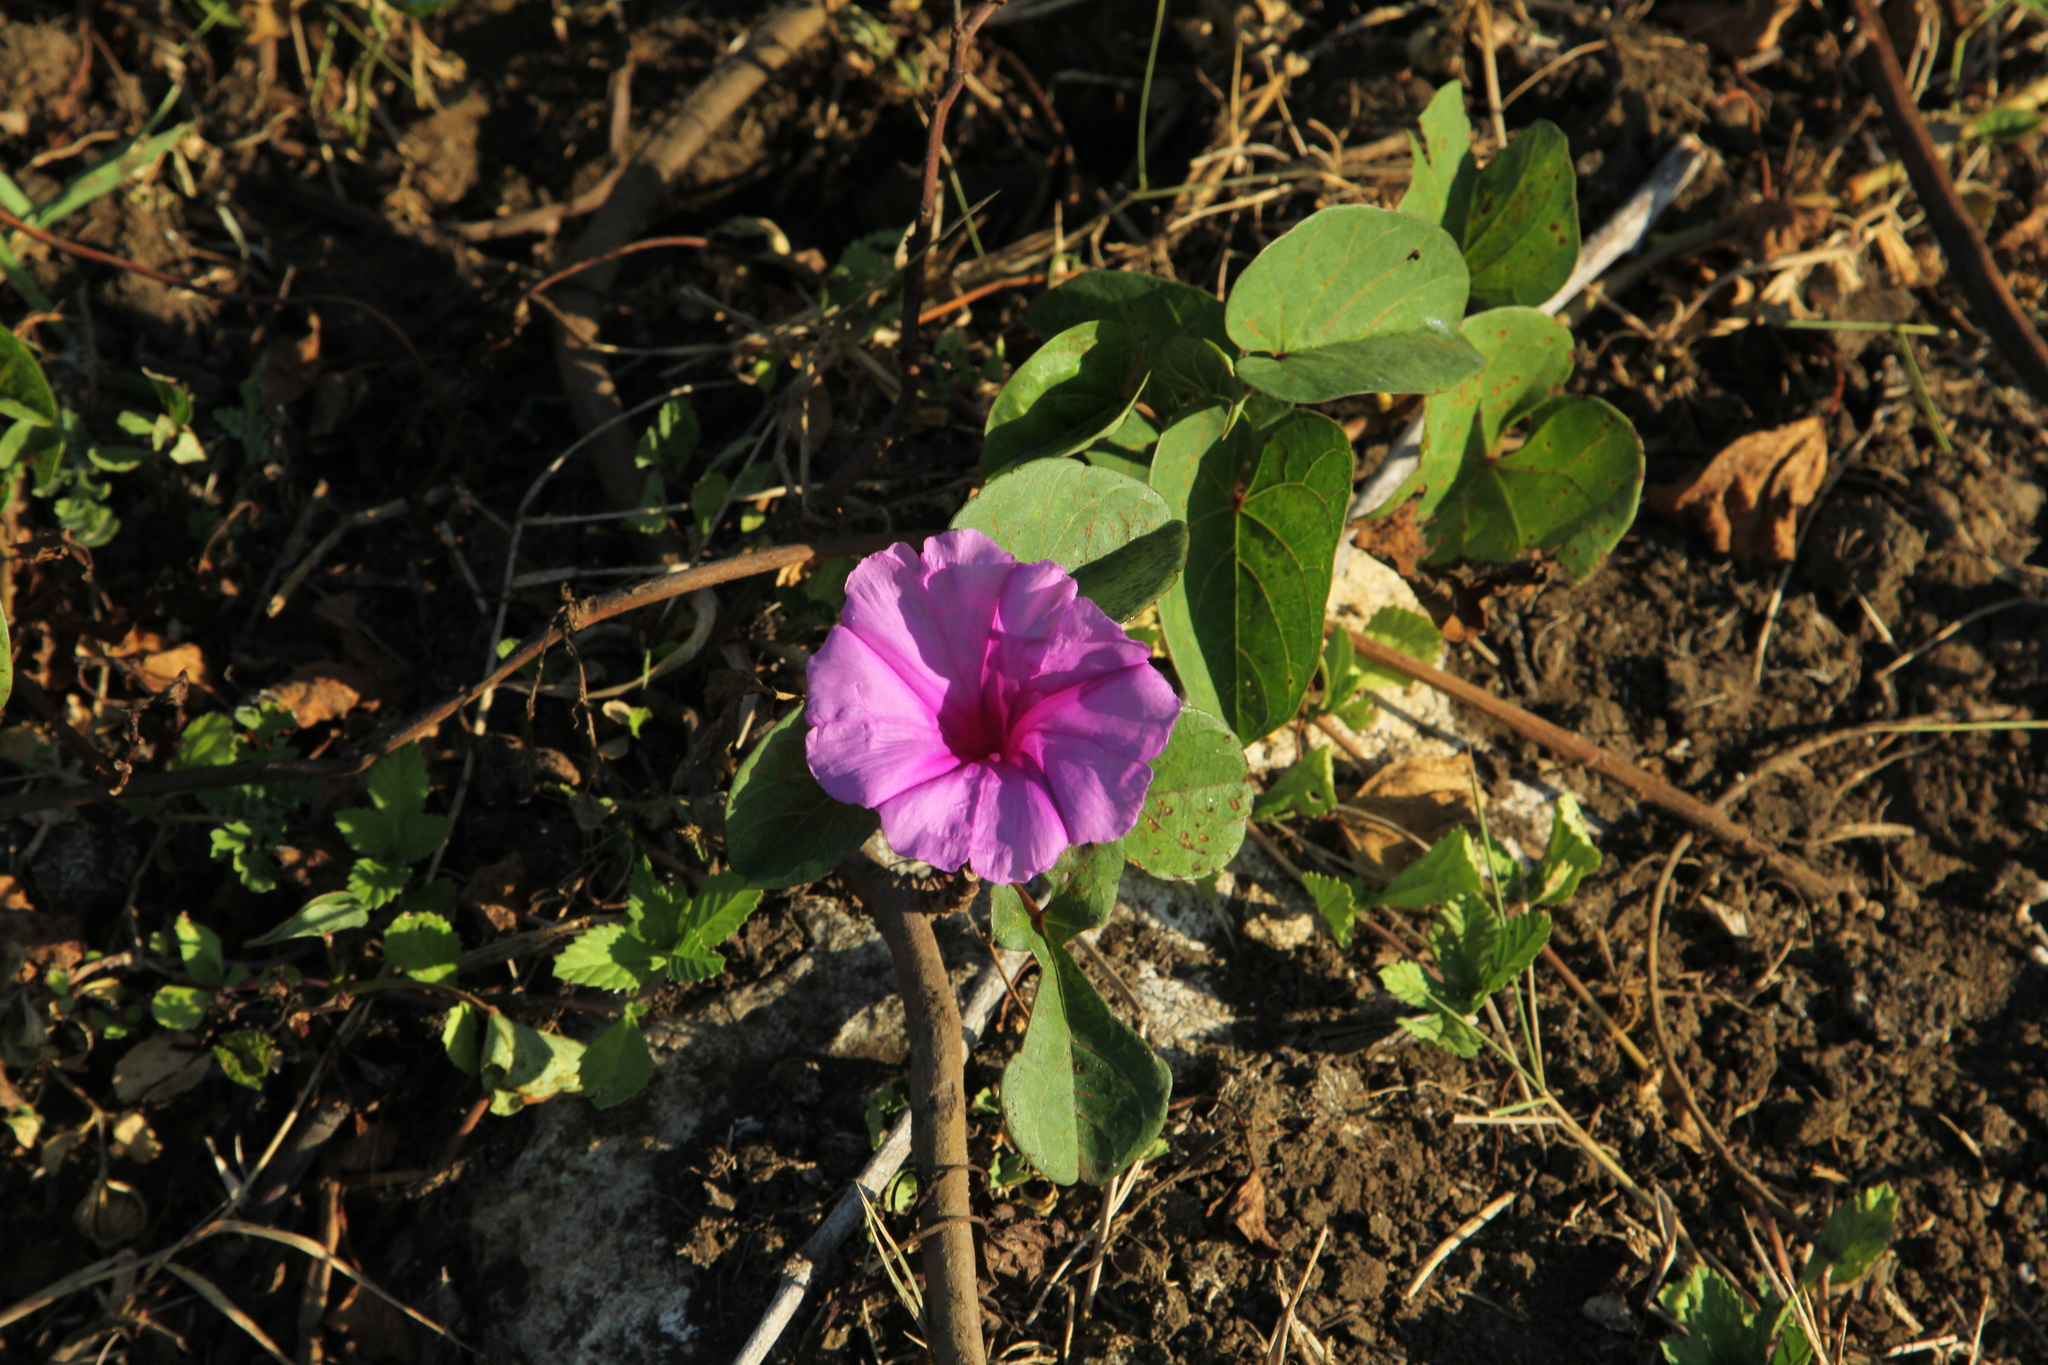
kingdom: Plantae
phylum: Tracheophyta
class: Magnoliopsida
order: Solanales
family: Convolvulaceae
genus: Ipomoea
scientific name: Ipomoea asarifolia
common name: Ginger-leaf morning-glory
